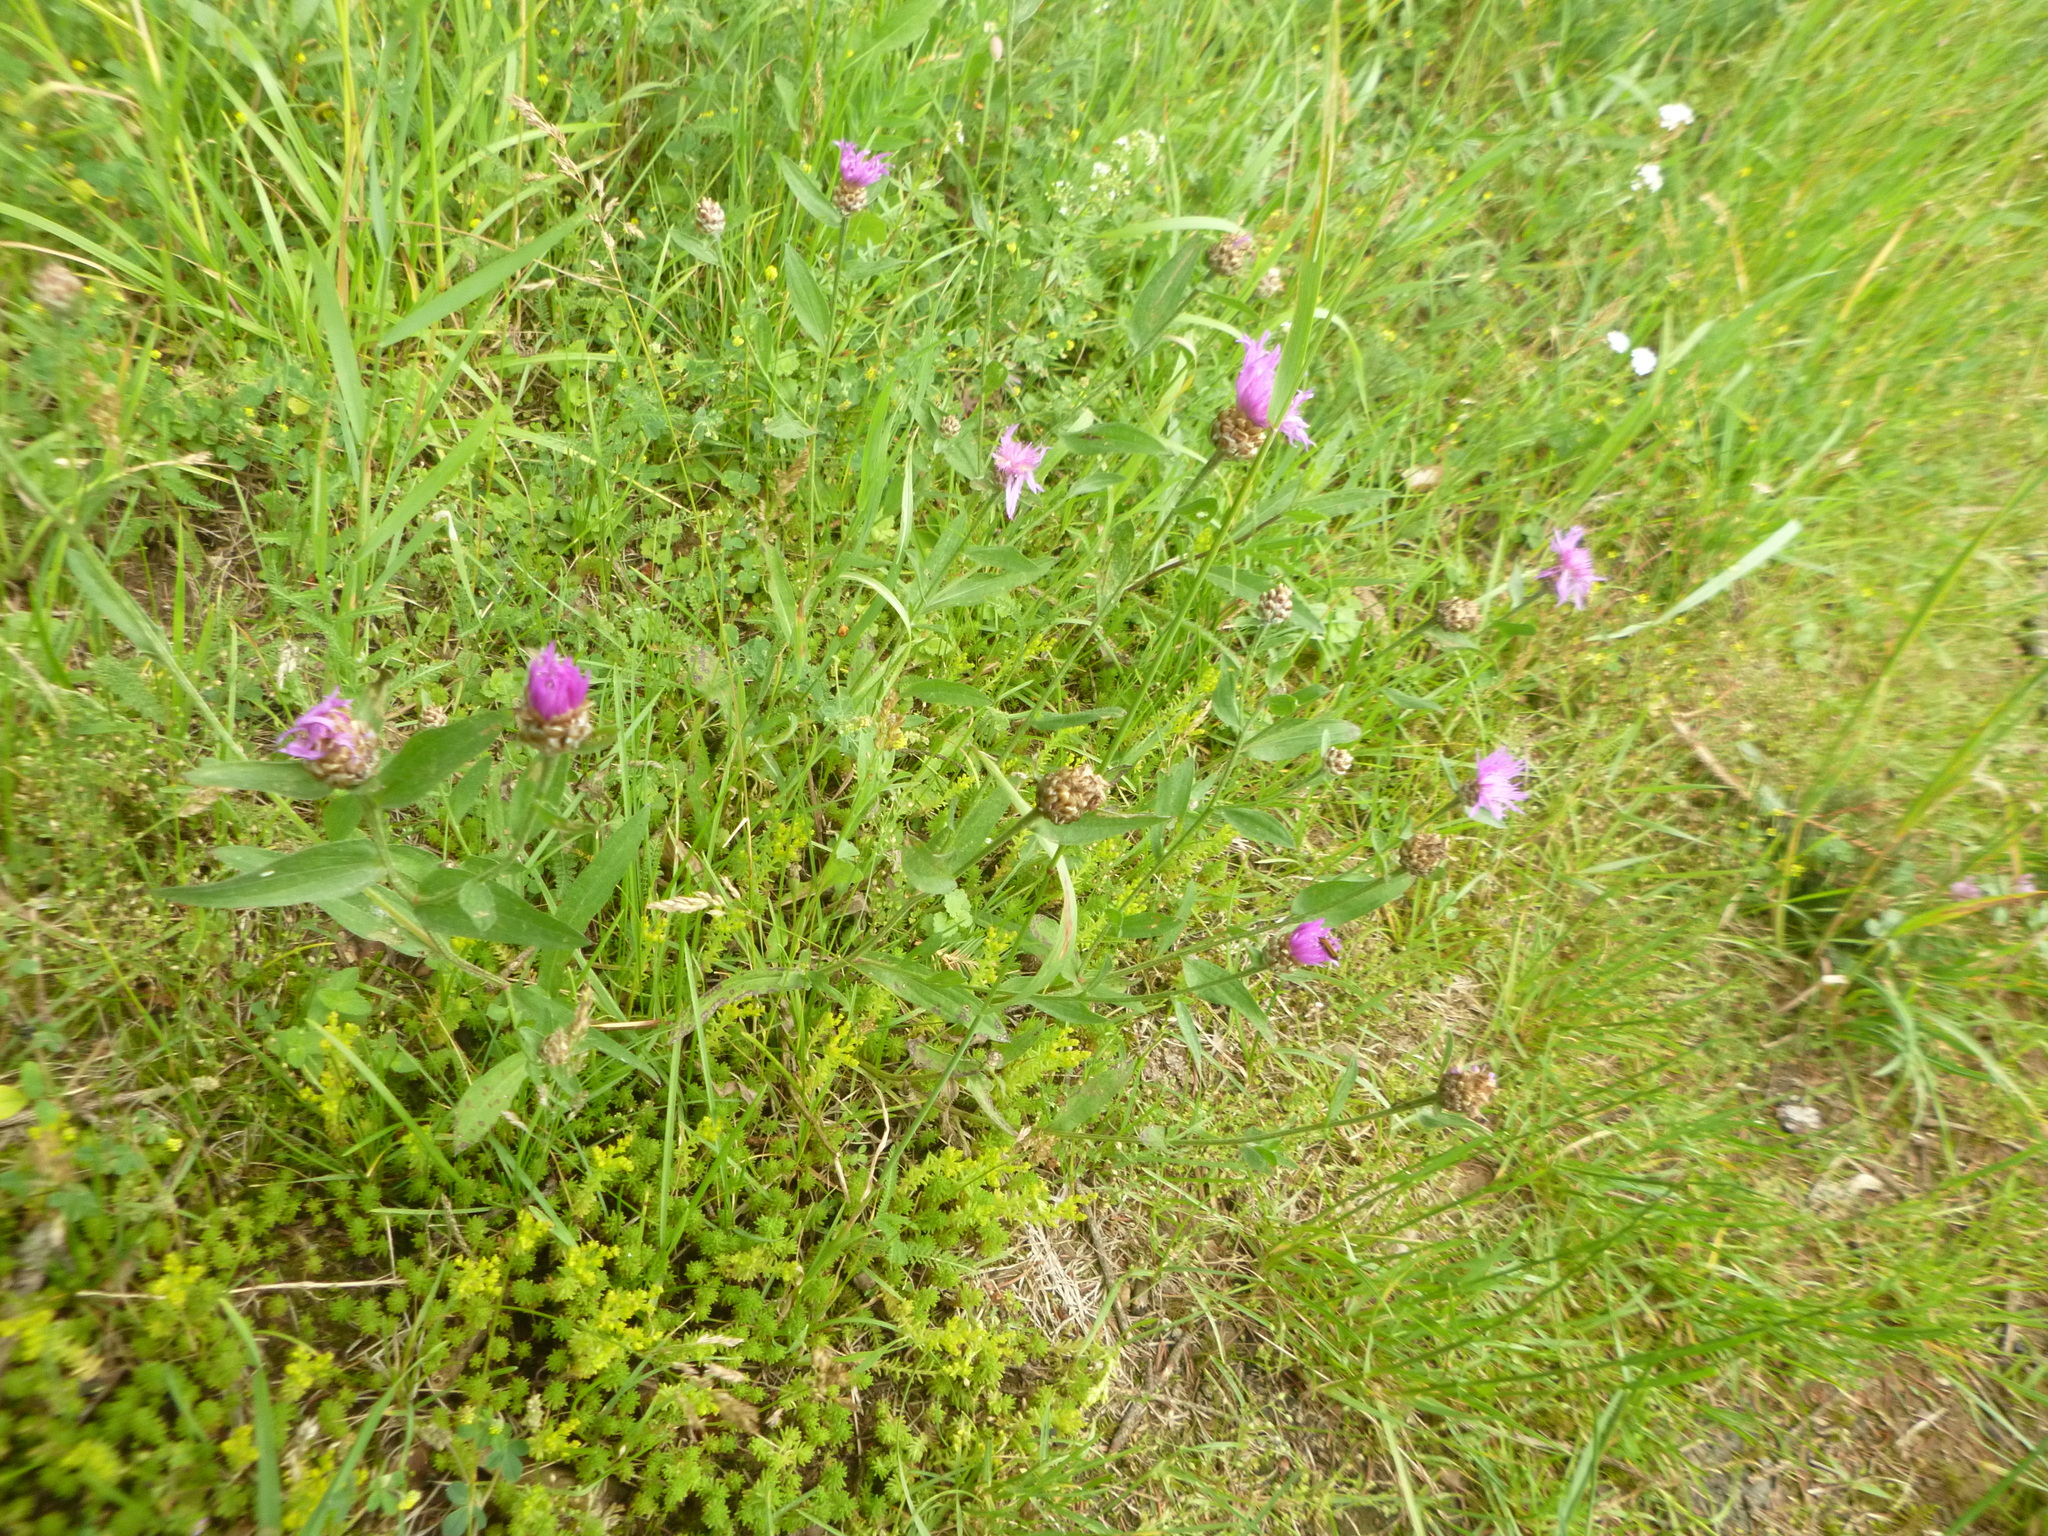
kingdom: Plantae
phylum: Tracheophyta
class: Magnoliopsida
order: Asterales
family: Asteraceae
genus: Centaurea
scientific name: Centaurea jacea
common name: Brown knapweed
